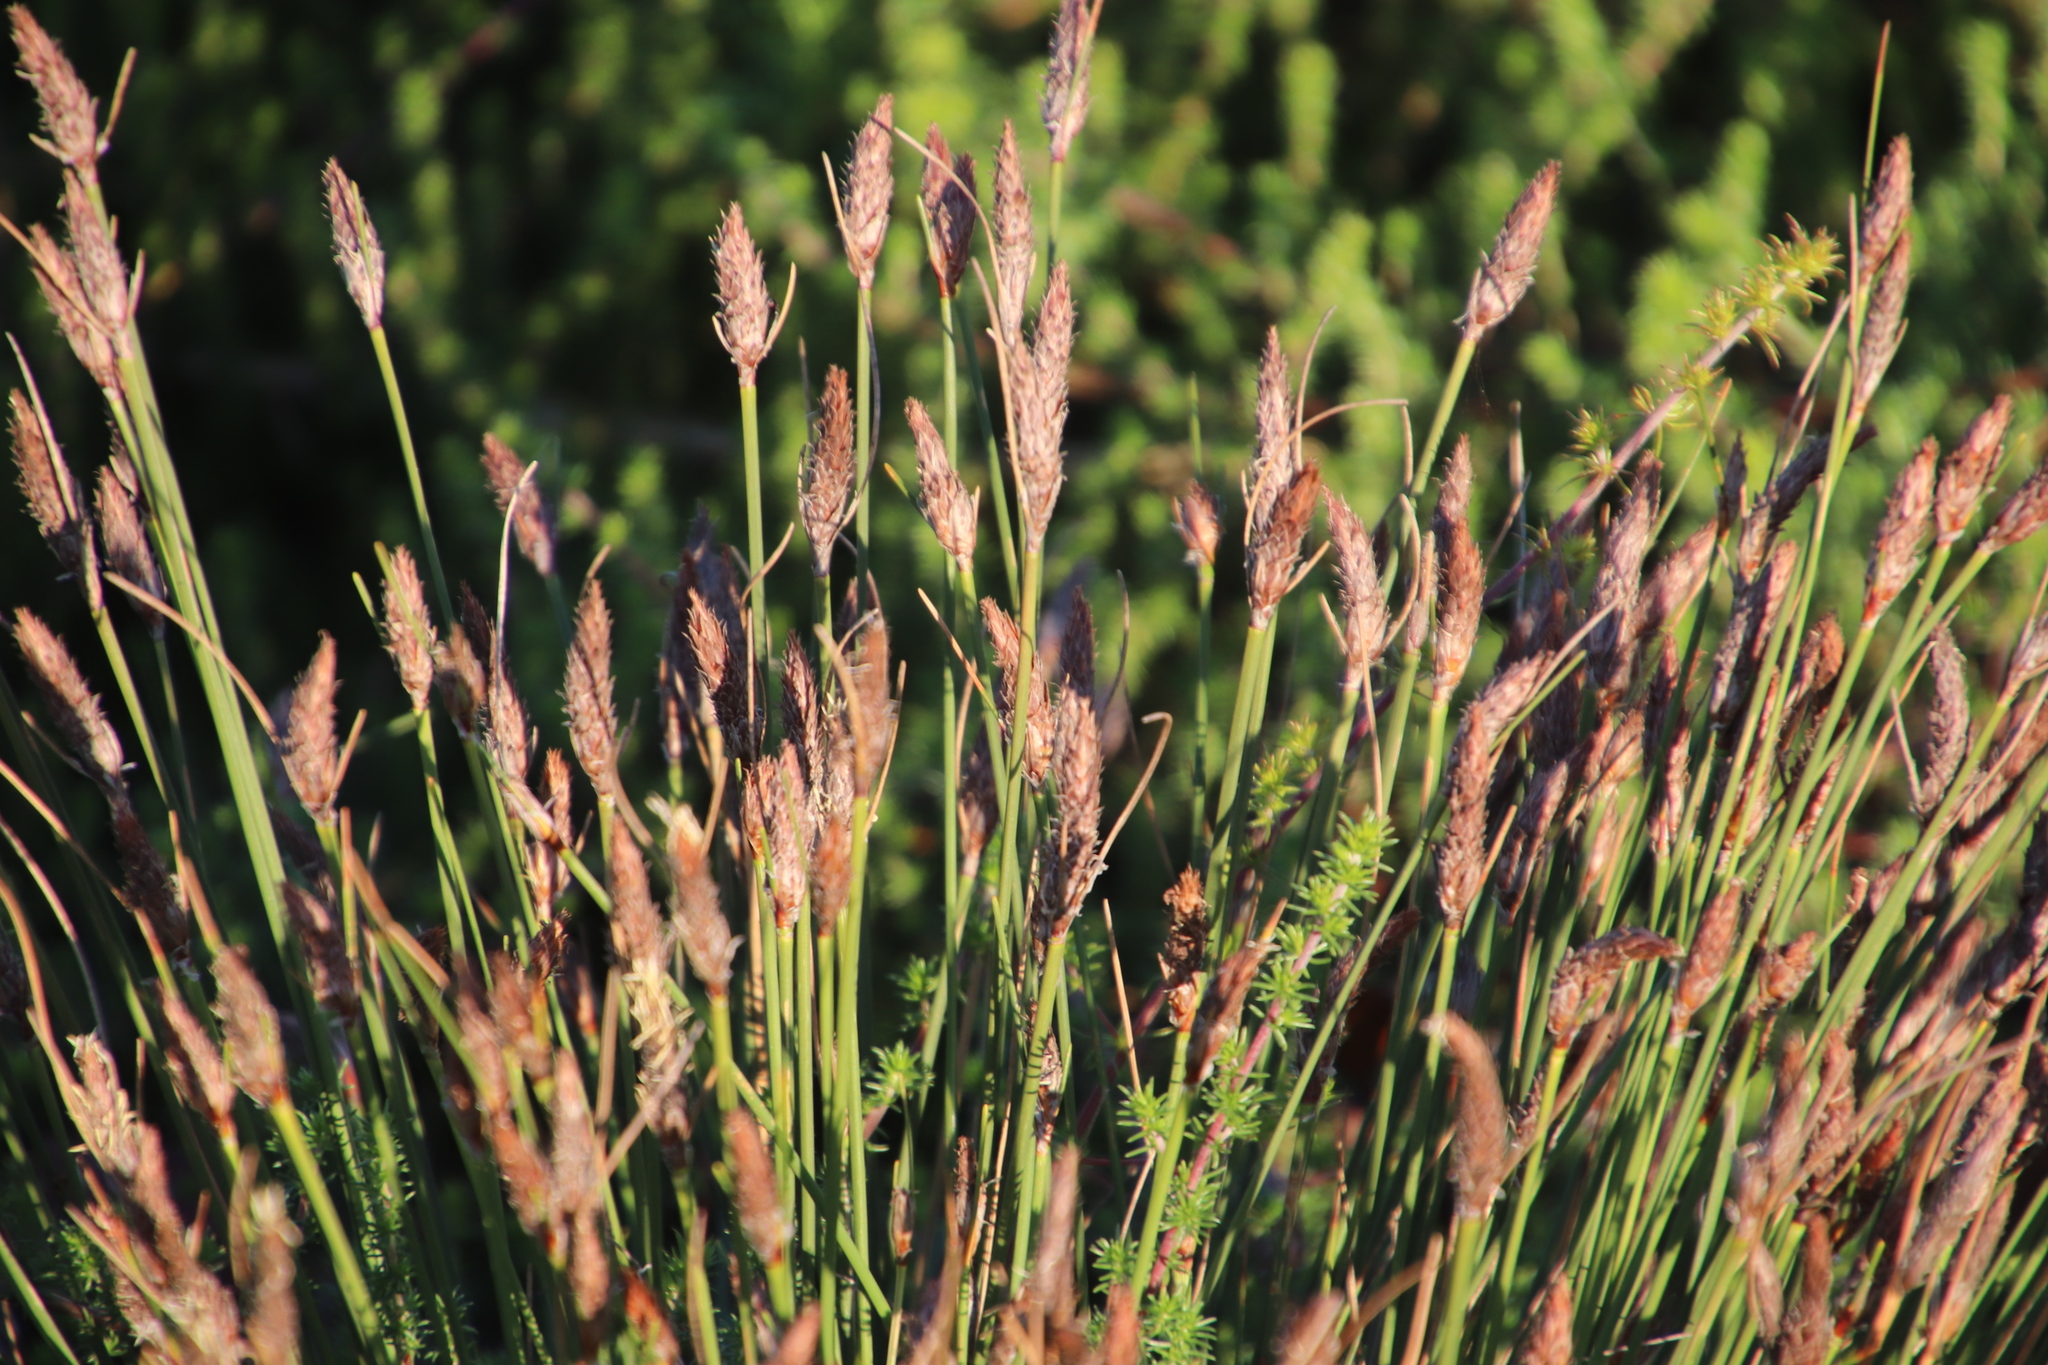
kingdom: Plantae
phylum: Tracheophyta
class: Liliopsida
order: Poales
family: Cyperaceae
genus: Ficinia
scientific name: Ficinia deusta
